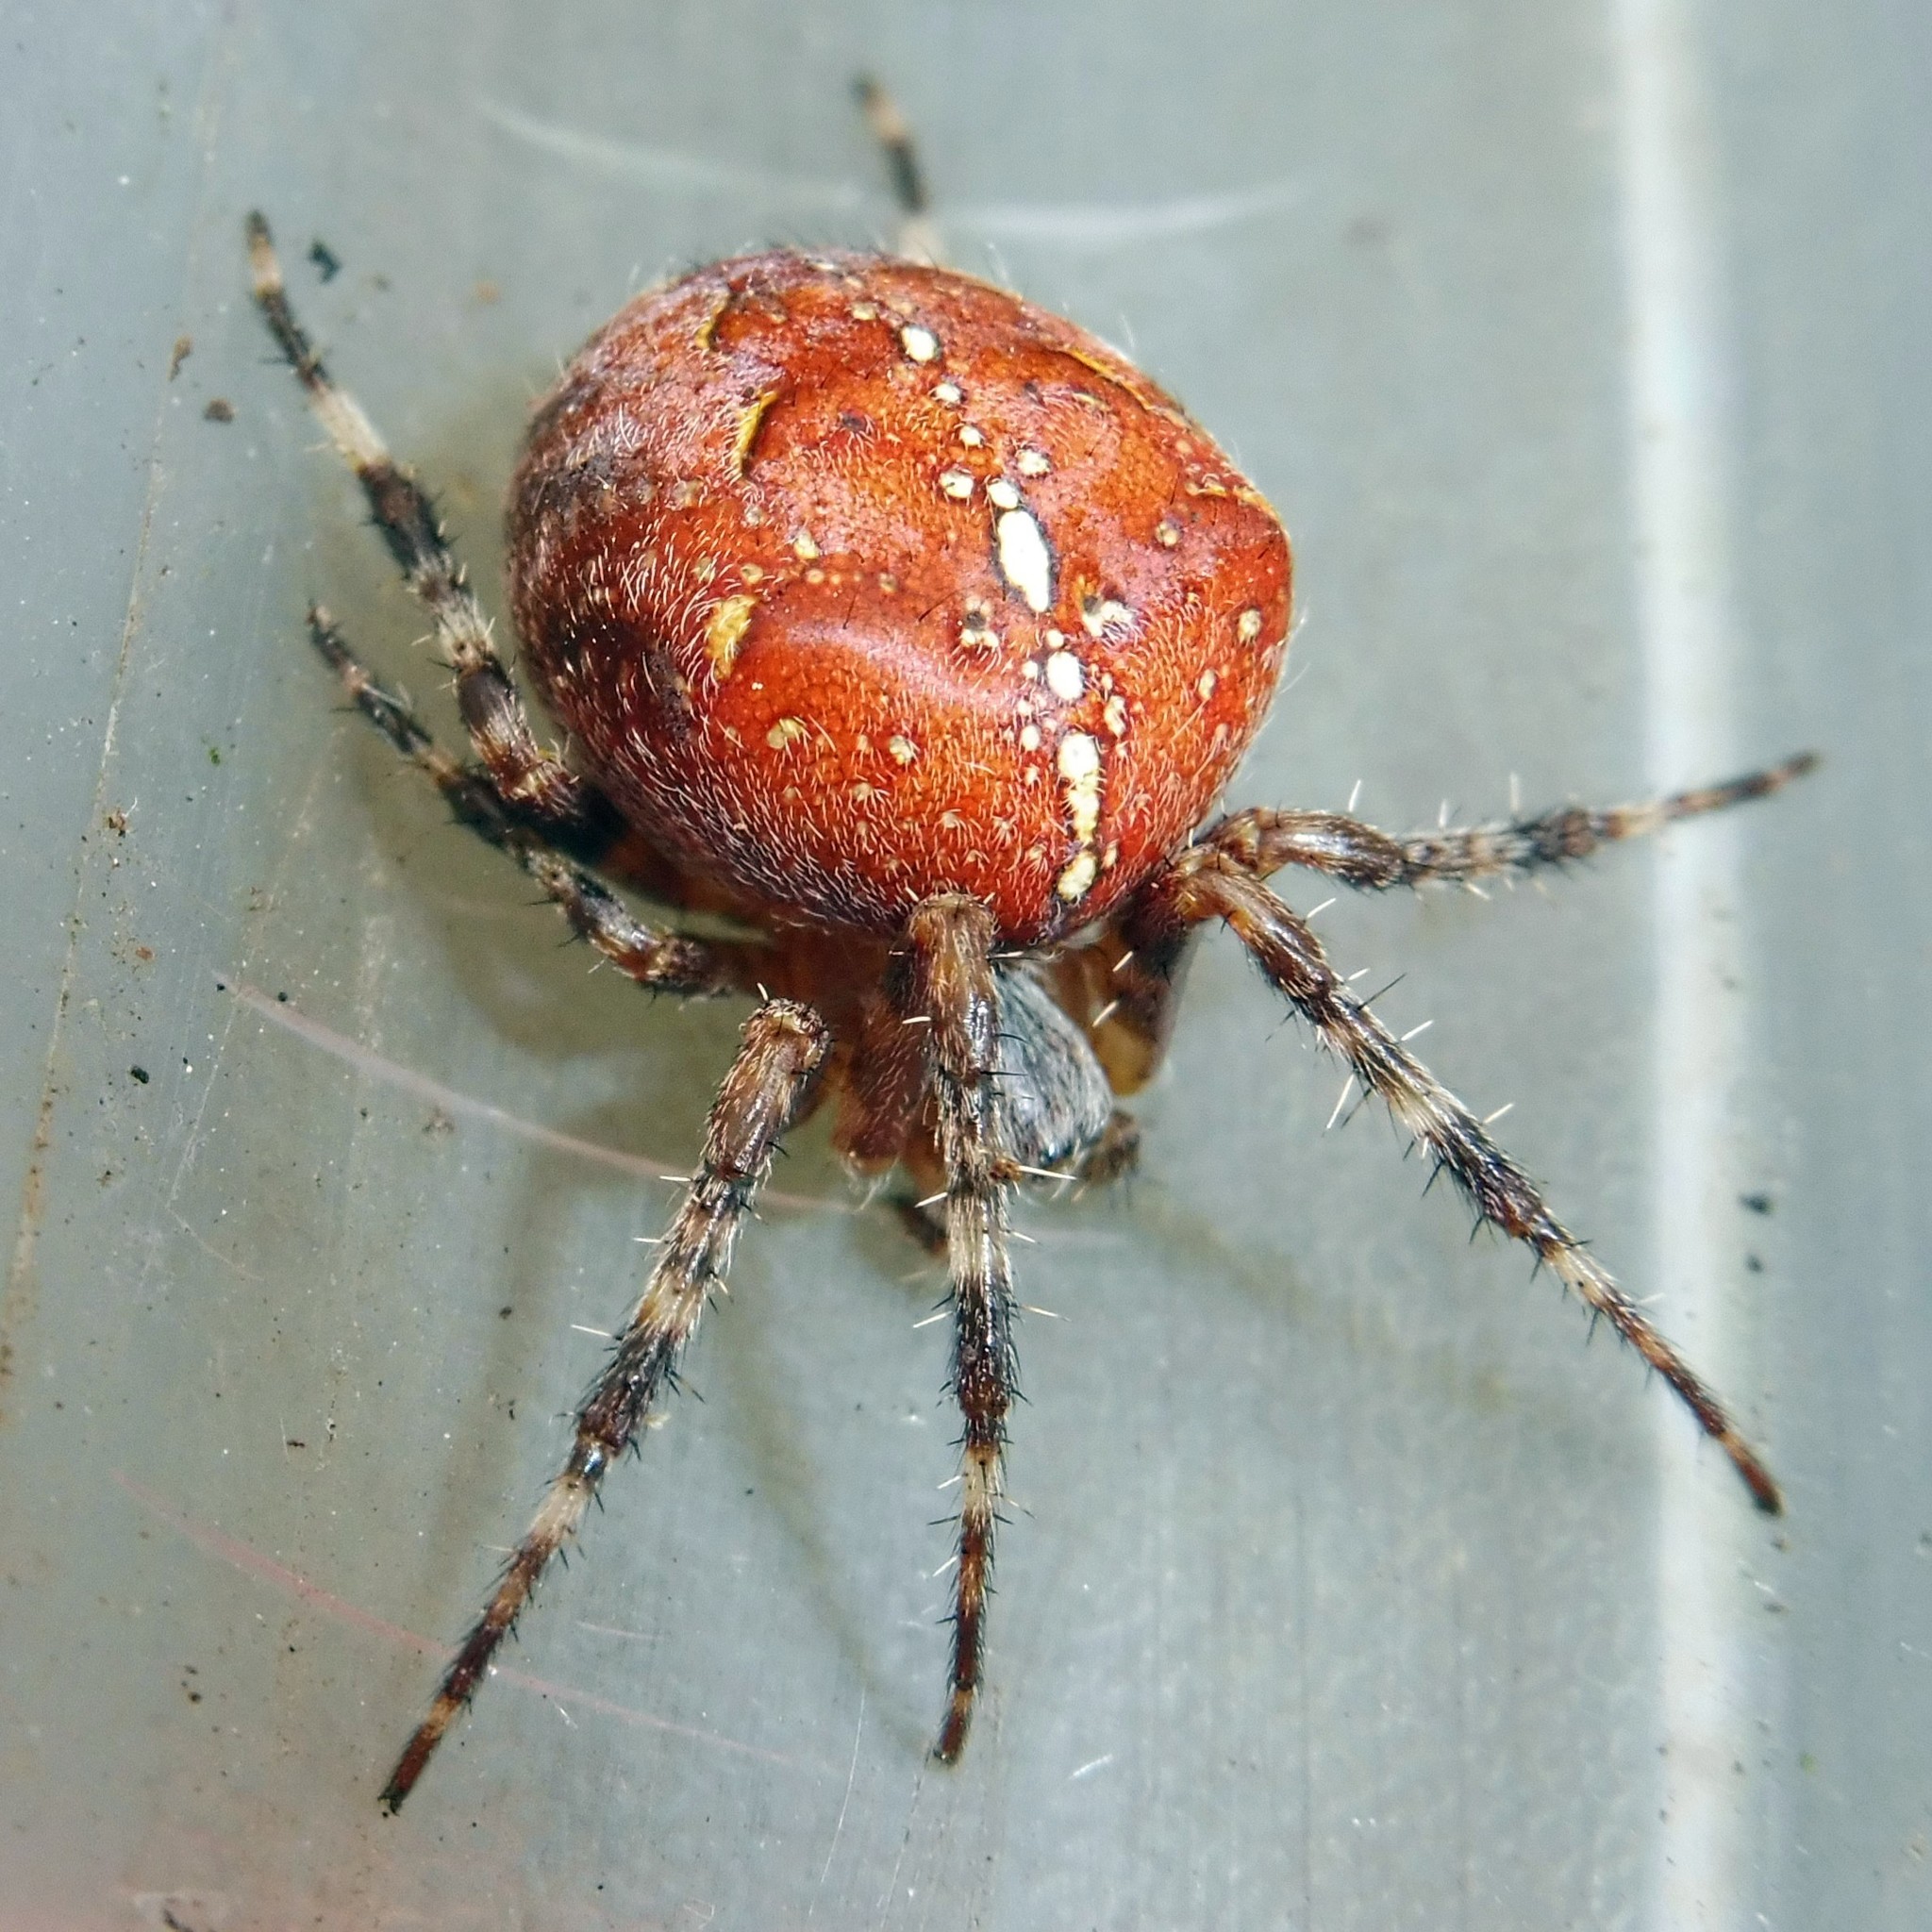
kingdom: Animalia
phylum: Arthropoda
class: Arachnida
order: Araneae
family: Araneidae
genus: Araneus
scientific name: Araneus diadematus
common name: Cross orbweaver
